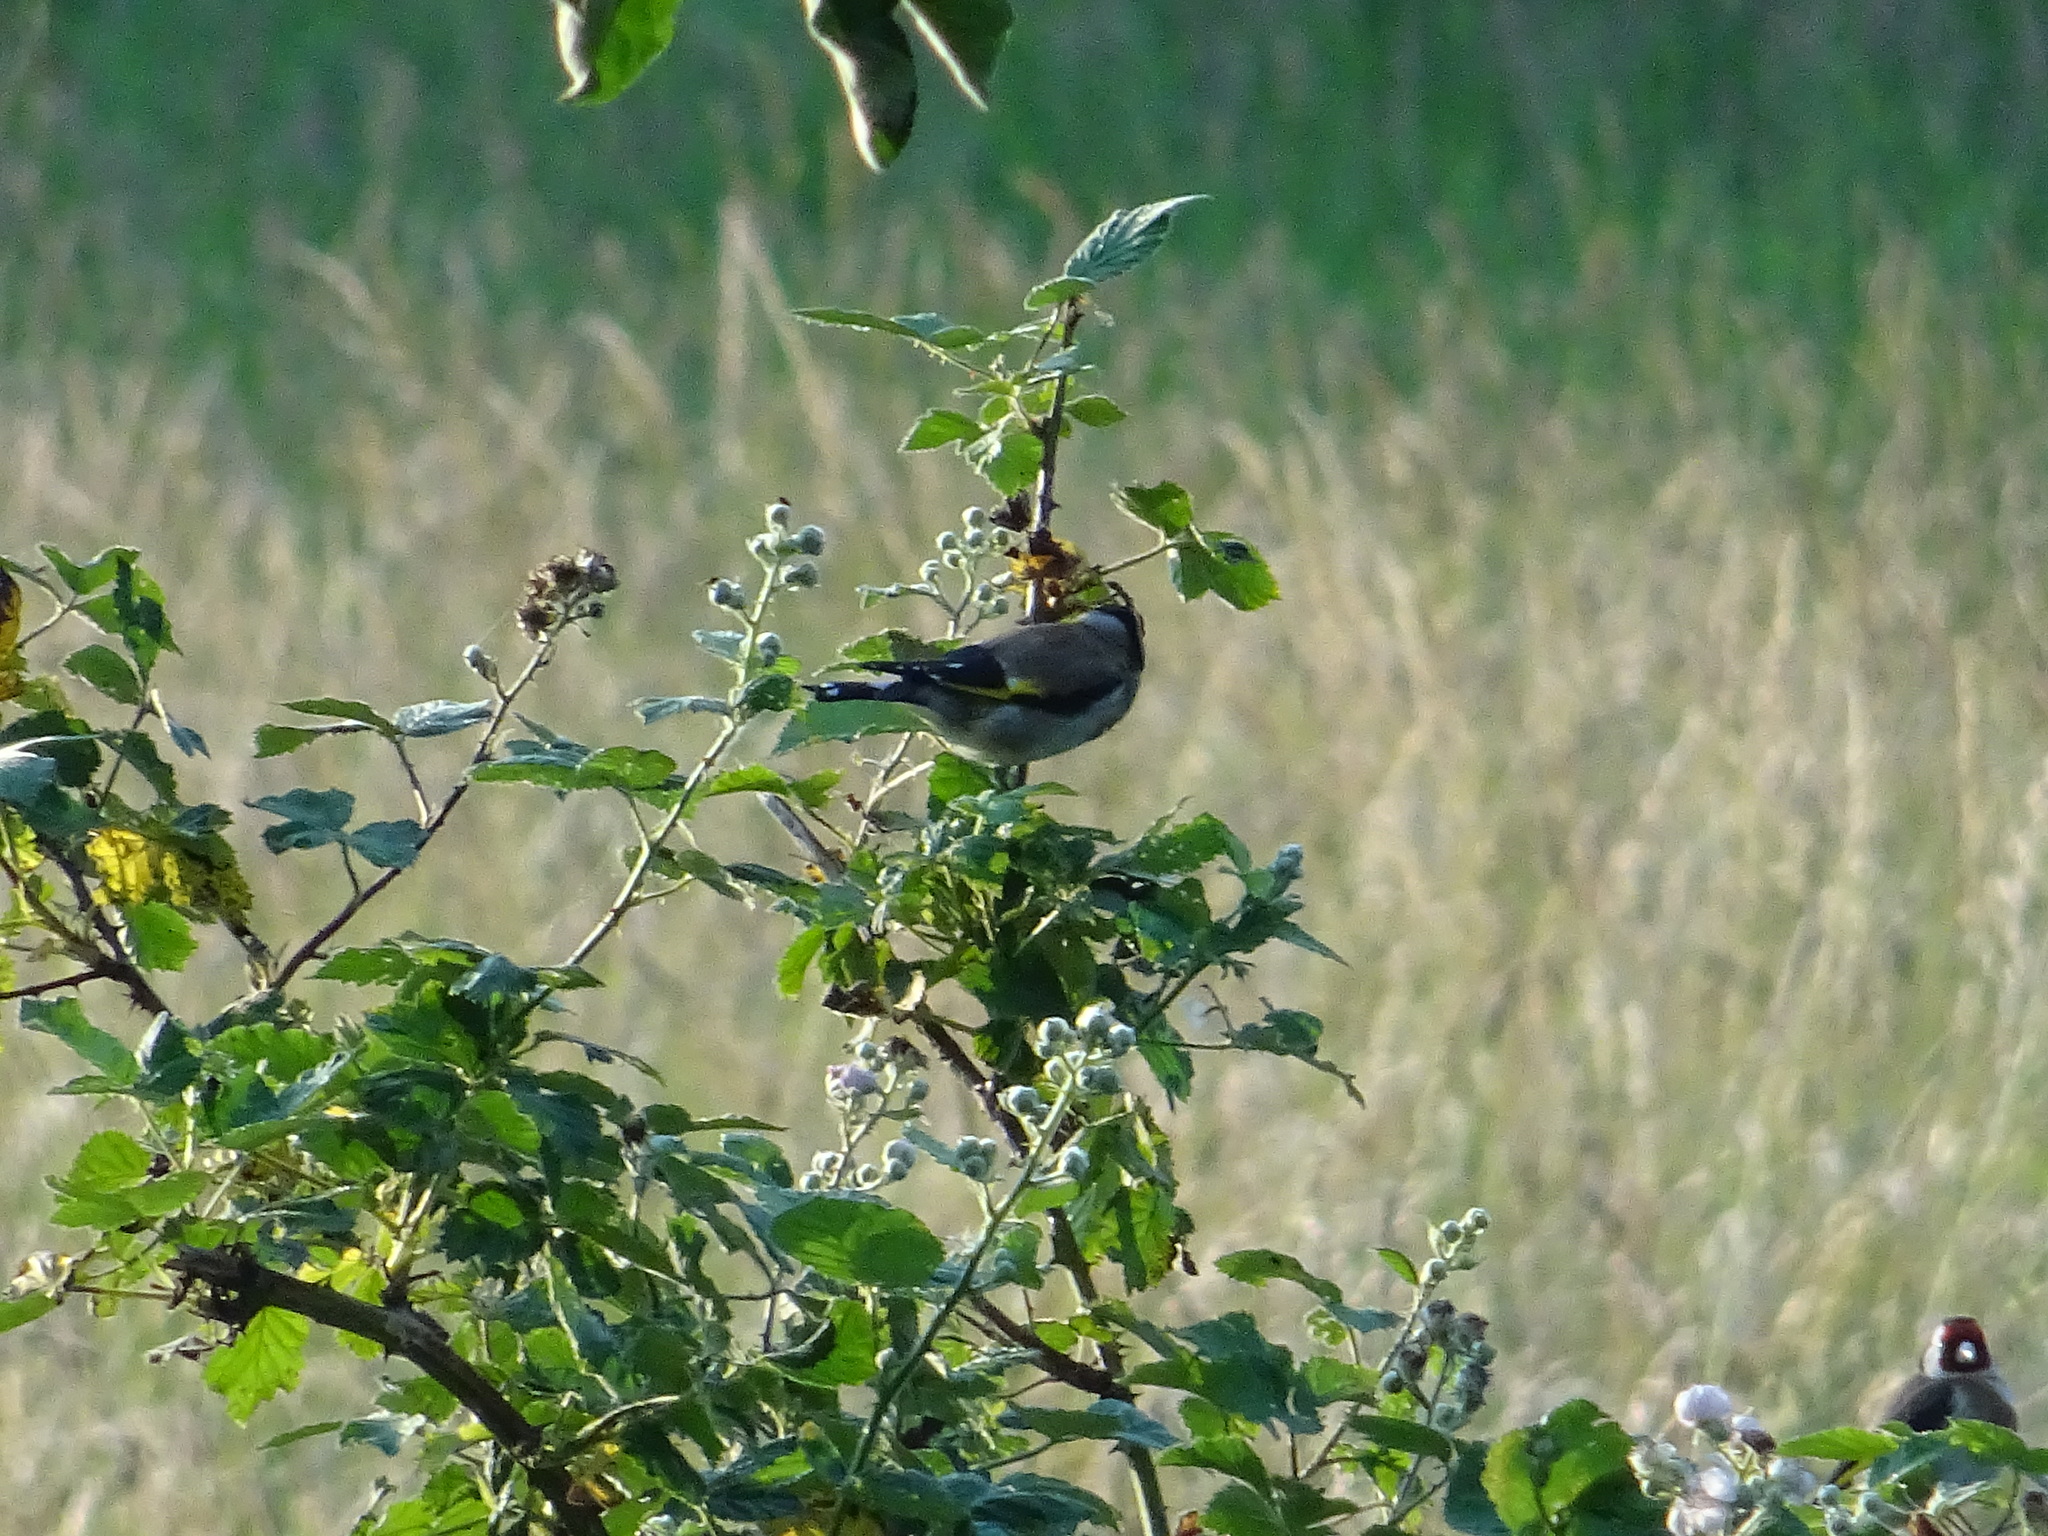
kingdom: Animalia
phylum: Chordata
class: Aves
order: Passeriformes
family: Fringillidae
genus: Carduelis
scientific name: Carduelis carduelis
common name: European goldfinch
